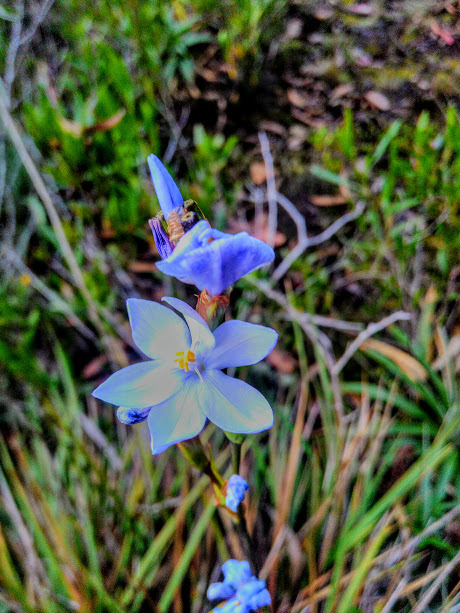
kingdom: Plantae
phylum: Tracheophyta
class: Liliopsida
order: Asparagales
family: Iridaceae
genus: Orthrosanthus
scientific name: Orthrosanthus chimboracensis
